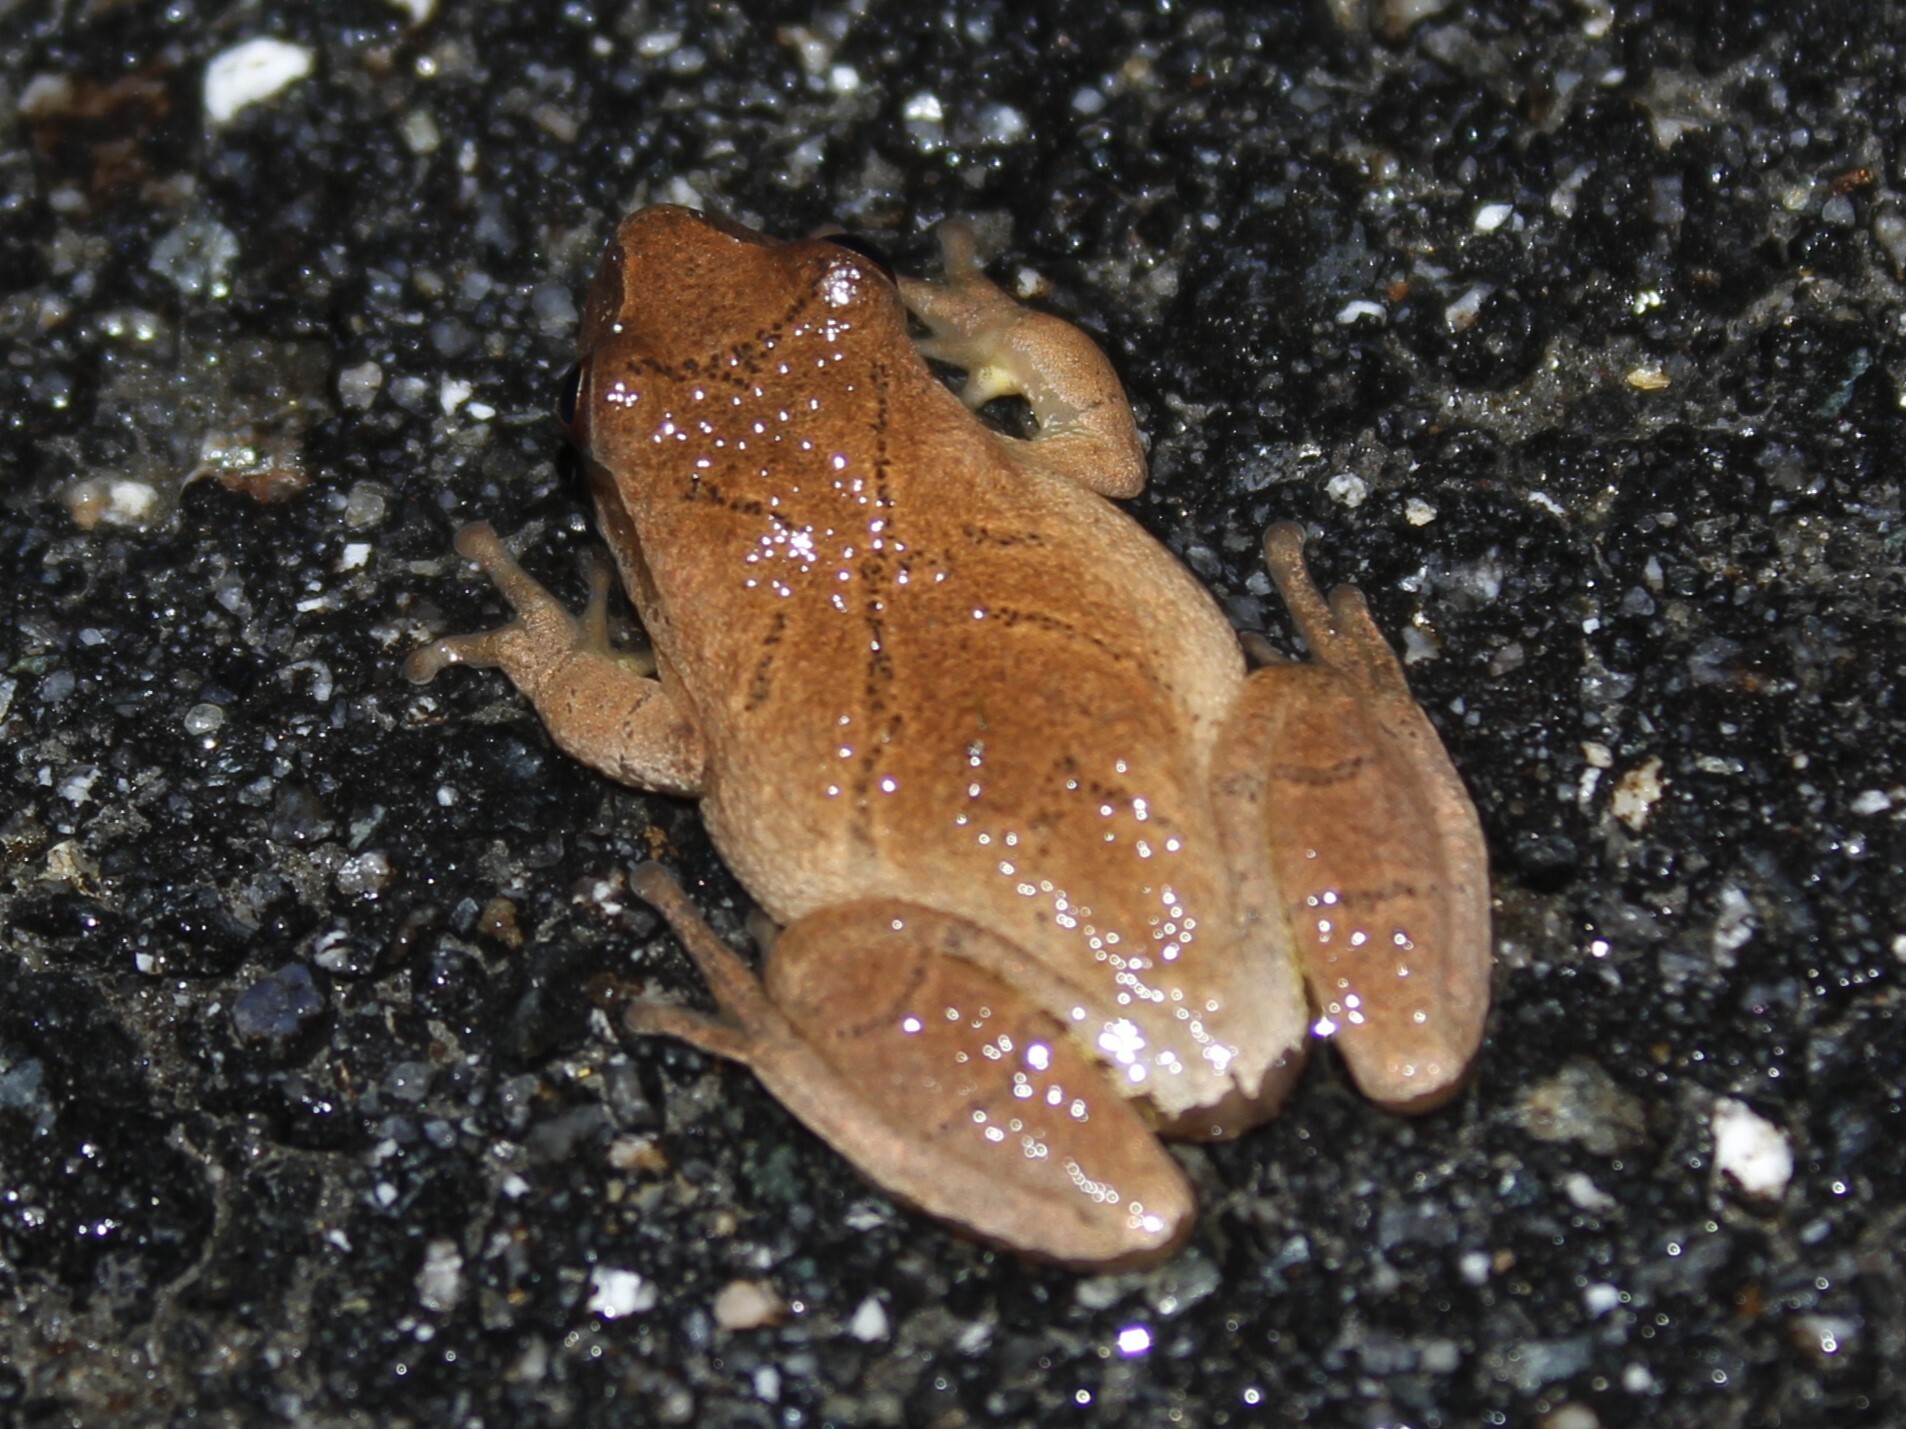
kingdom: Animalia
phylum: Chordata
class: Amphibia
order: Anura
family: Hylidae
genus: Pseudacris
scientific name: Pseudacris crucifer
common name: Spring peeper
